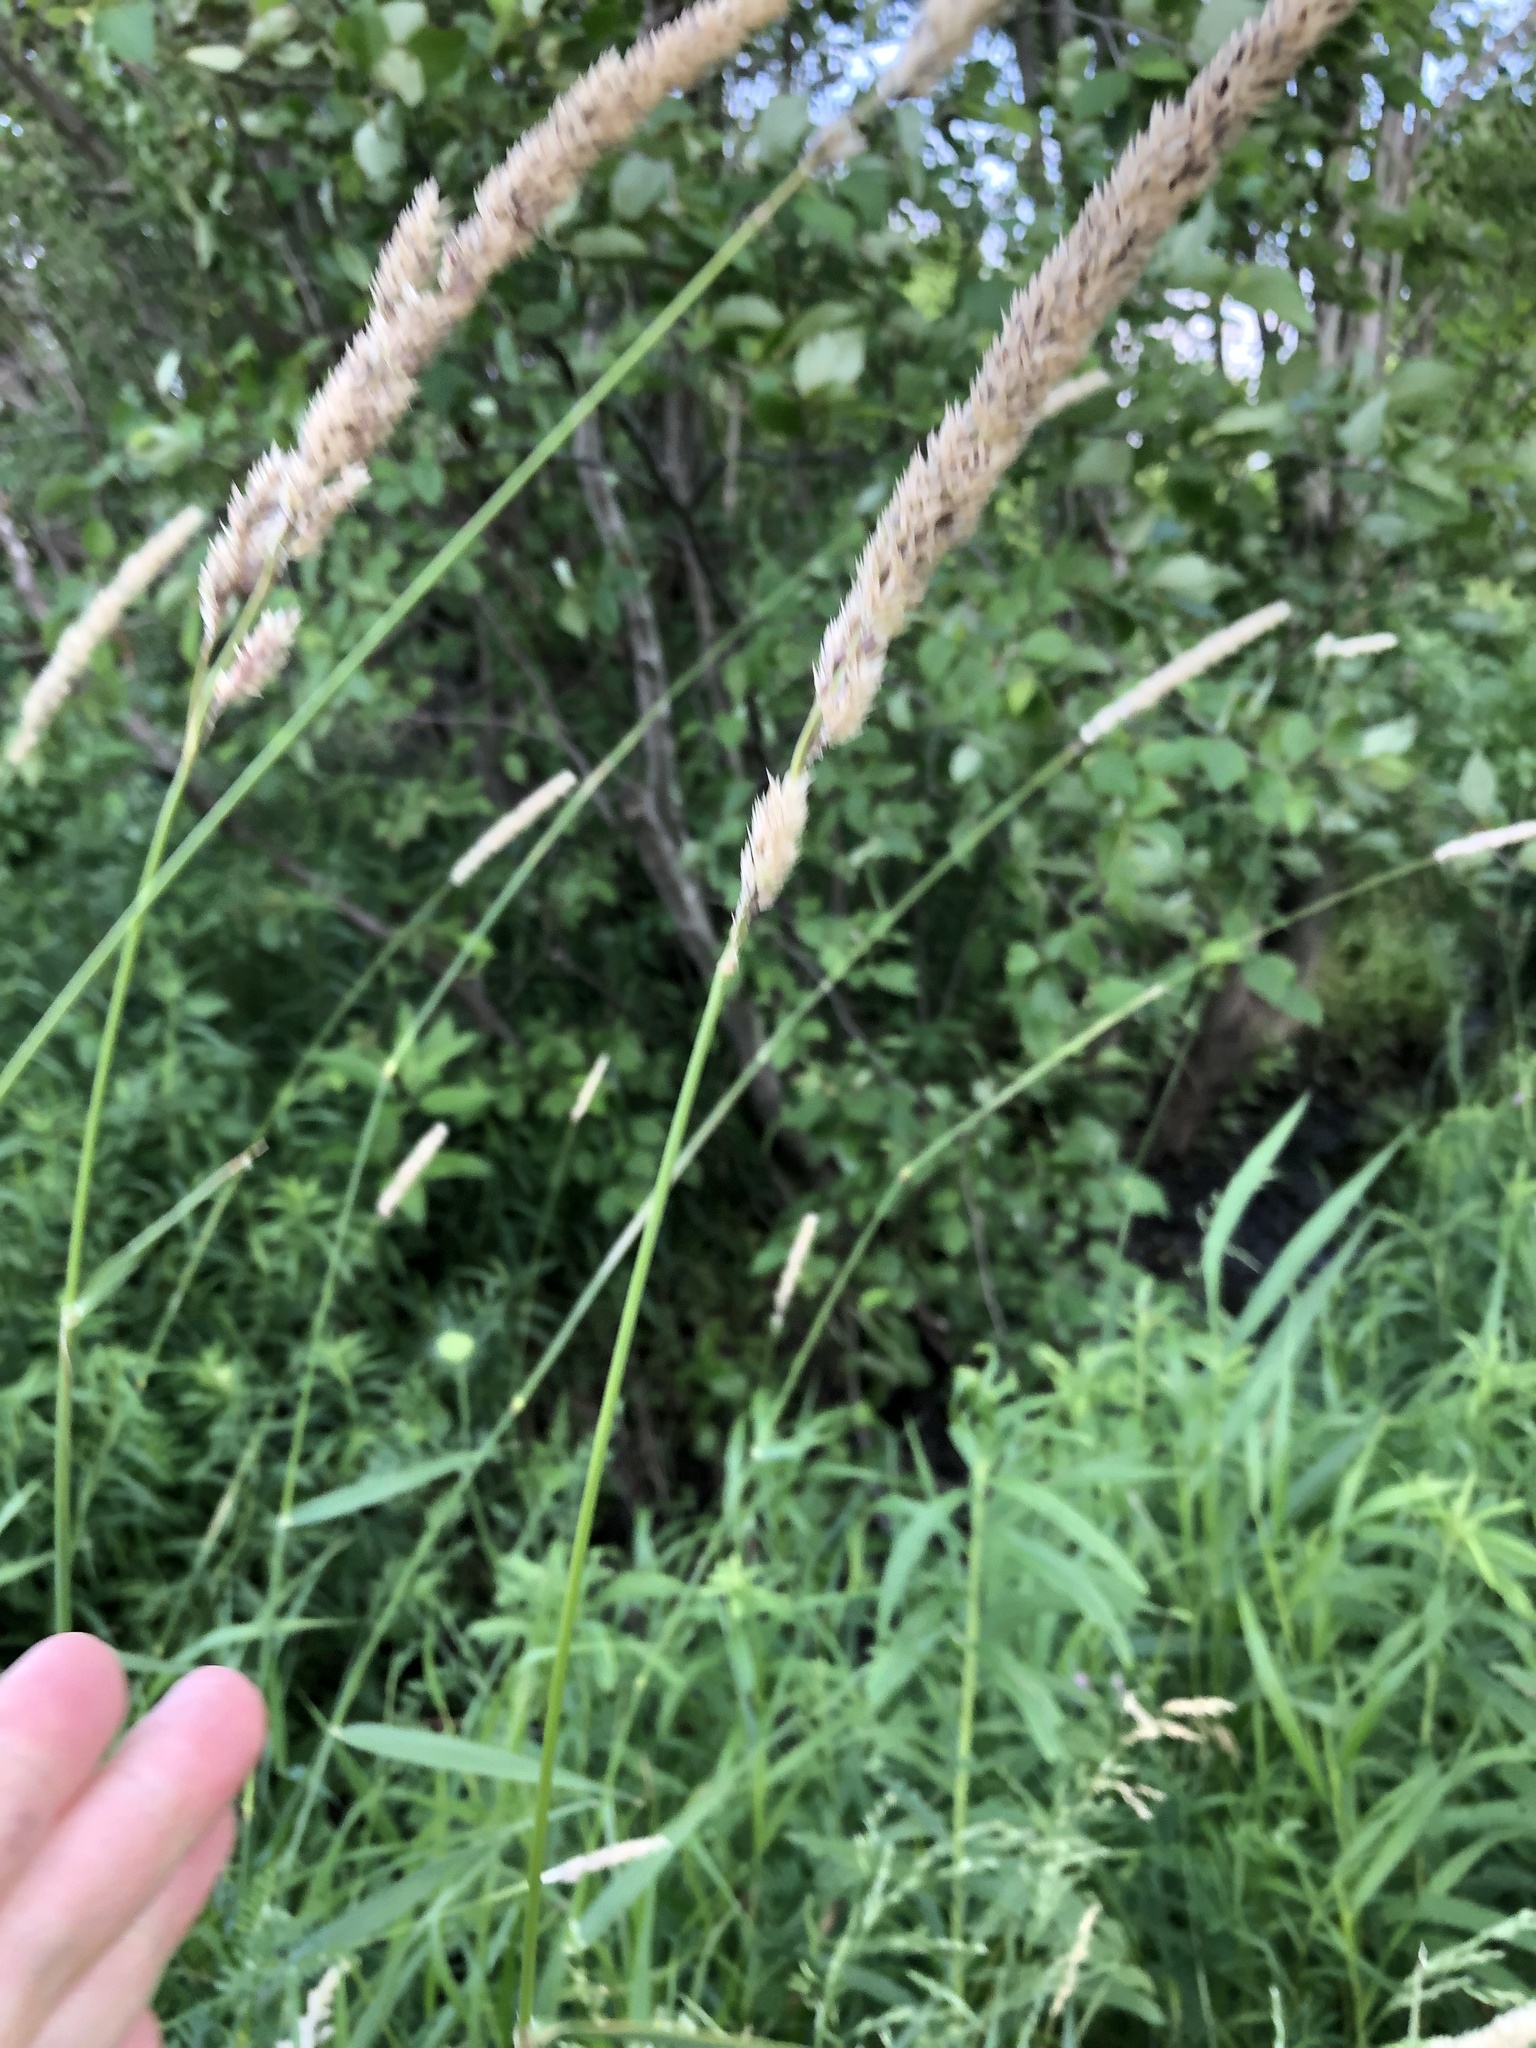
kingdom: Plantae
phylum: Tracheophyta
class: Liliopsida
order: Poales
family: Poaceae
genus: Phalaris
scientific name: Phalaris arundinacea
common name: Reed canary-grass
